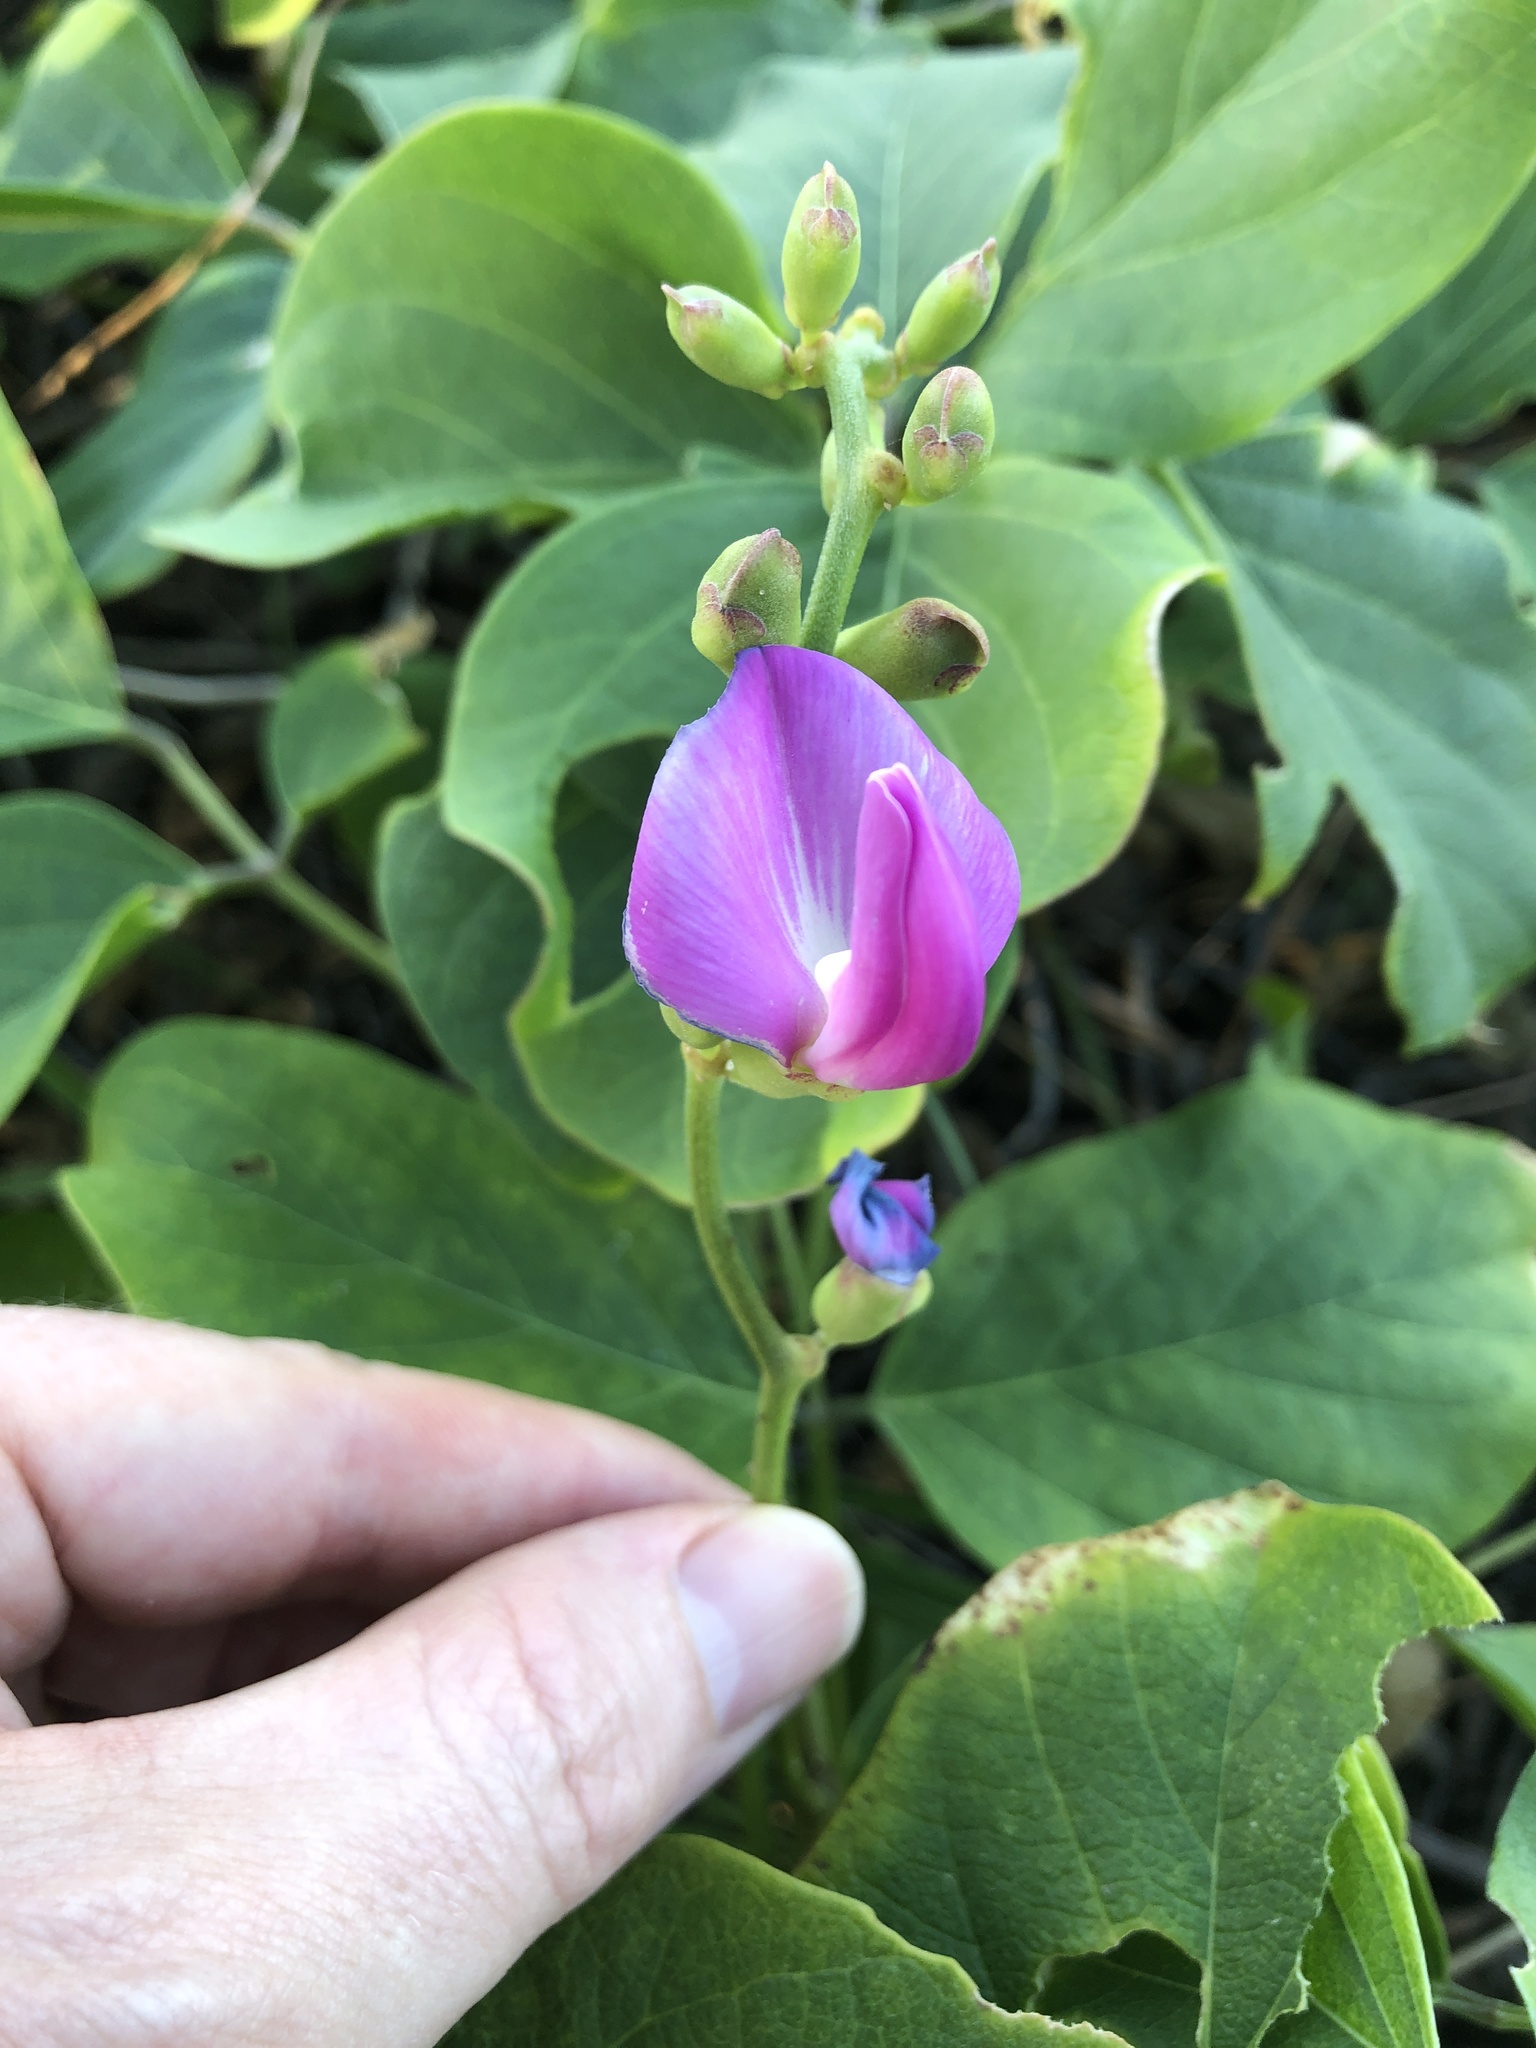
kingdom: Plantae
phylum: Tracheophyta
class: Magnoliopsida
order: Fabales
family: Fabaceae
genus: Canavalia
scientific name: Canavalia rosea
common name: Beach-bean
